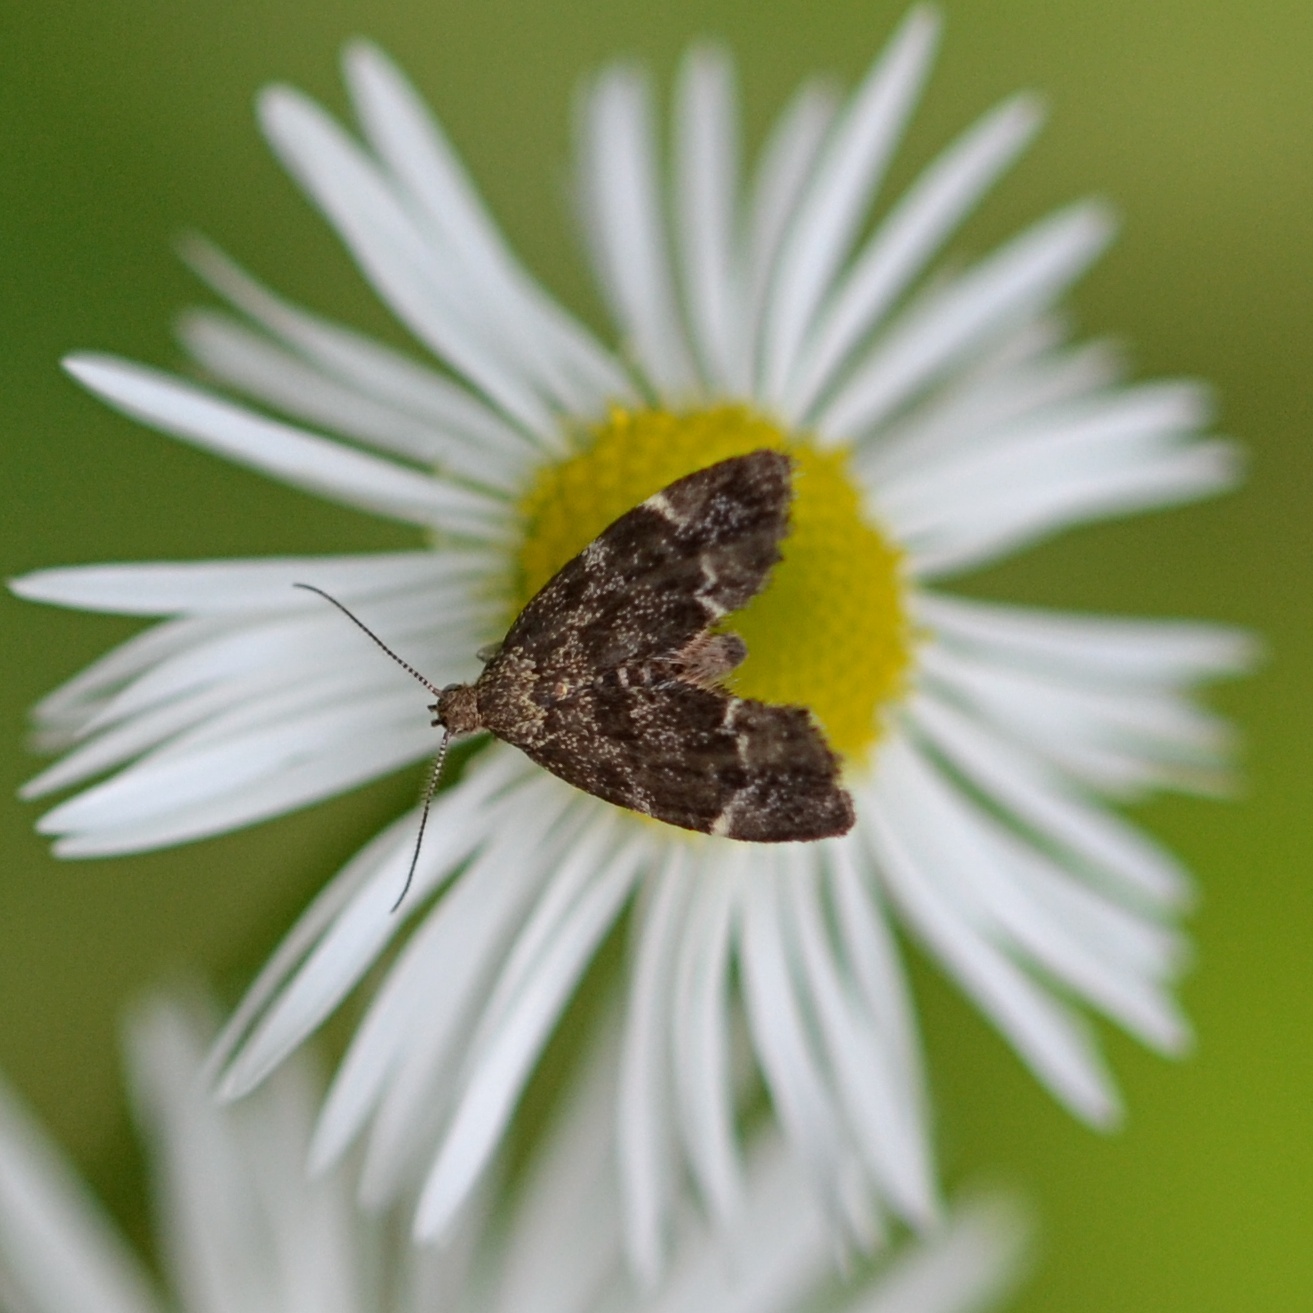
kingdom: Animalia
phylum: Arthropoda
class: Insecta
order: Lepidoptera
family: Choreutidae
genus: Anthophila
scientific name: Anthophila fabriciana
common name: Nettle-tap
